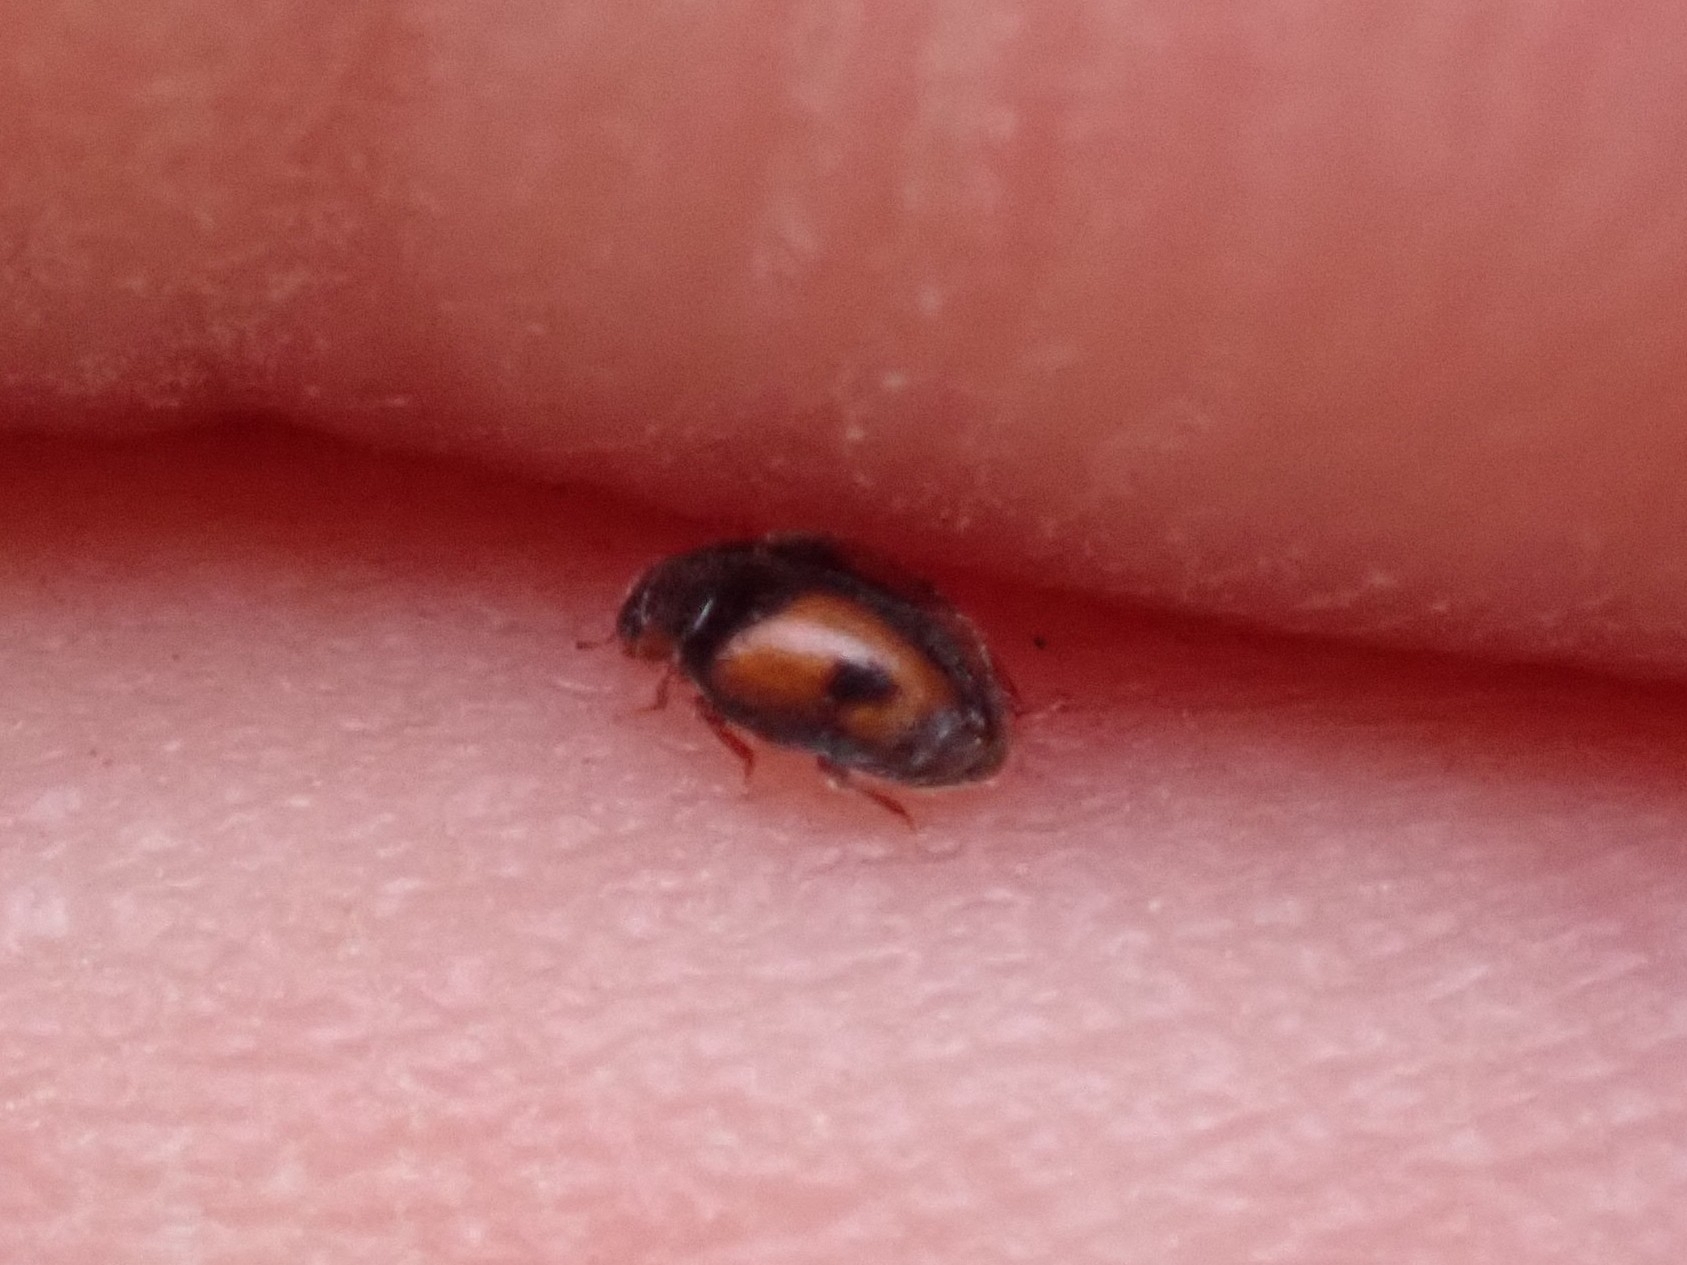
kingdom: Animalia
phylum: Arthropoda
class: Insecta
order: Coleoptera
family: Coccinellidae
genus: Scymnus
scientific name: Scymnus canariensis
